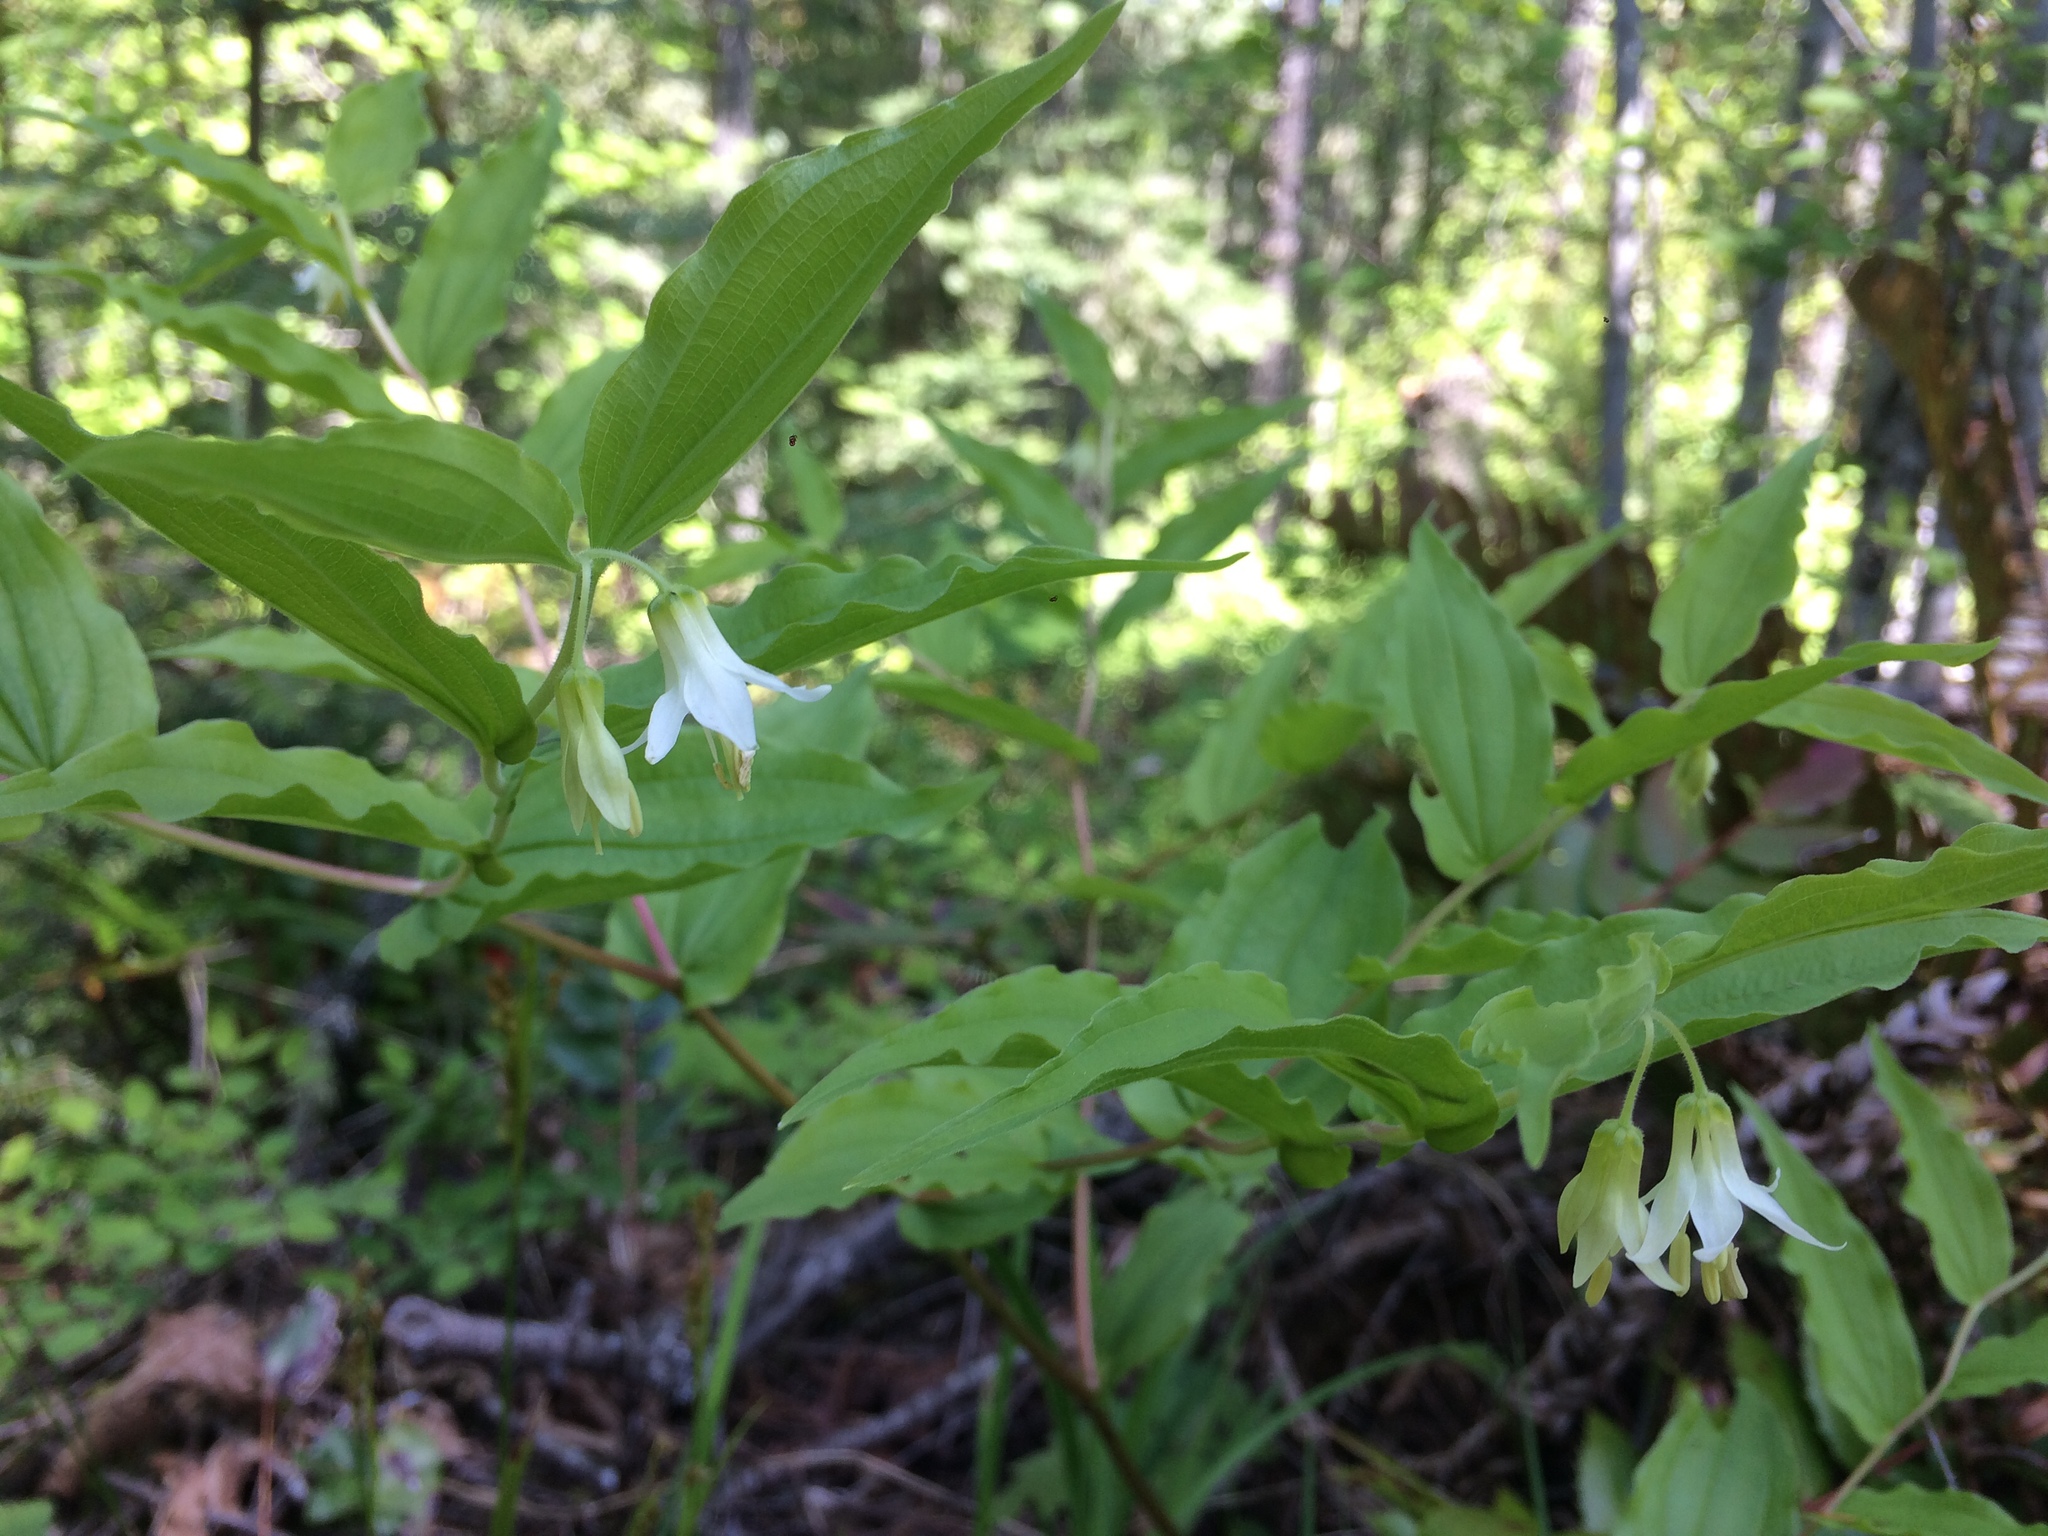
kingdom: Plantae
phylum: Tracheophyta
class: Liliopsida
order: Liliales
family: Liliaceae
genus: Prosartes
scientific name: Prosartes hookeri
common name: Fairy-bells
